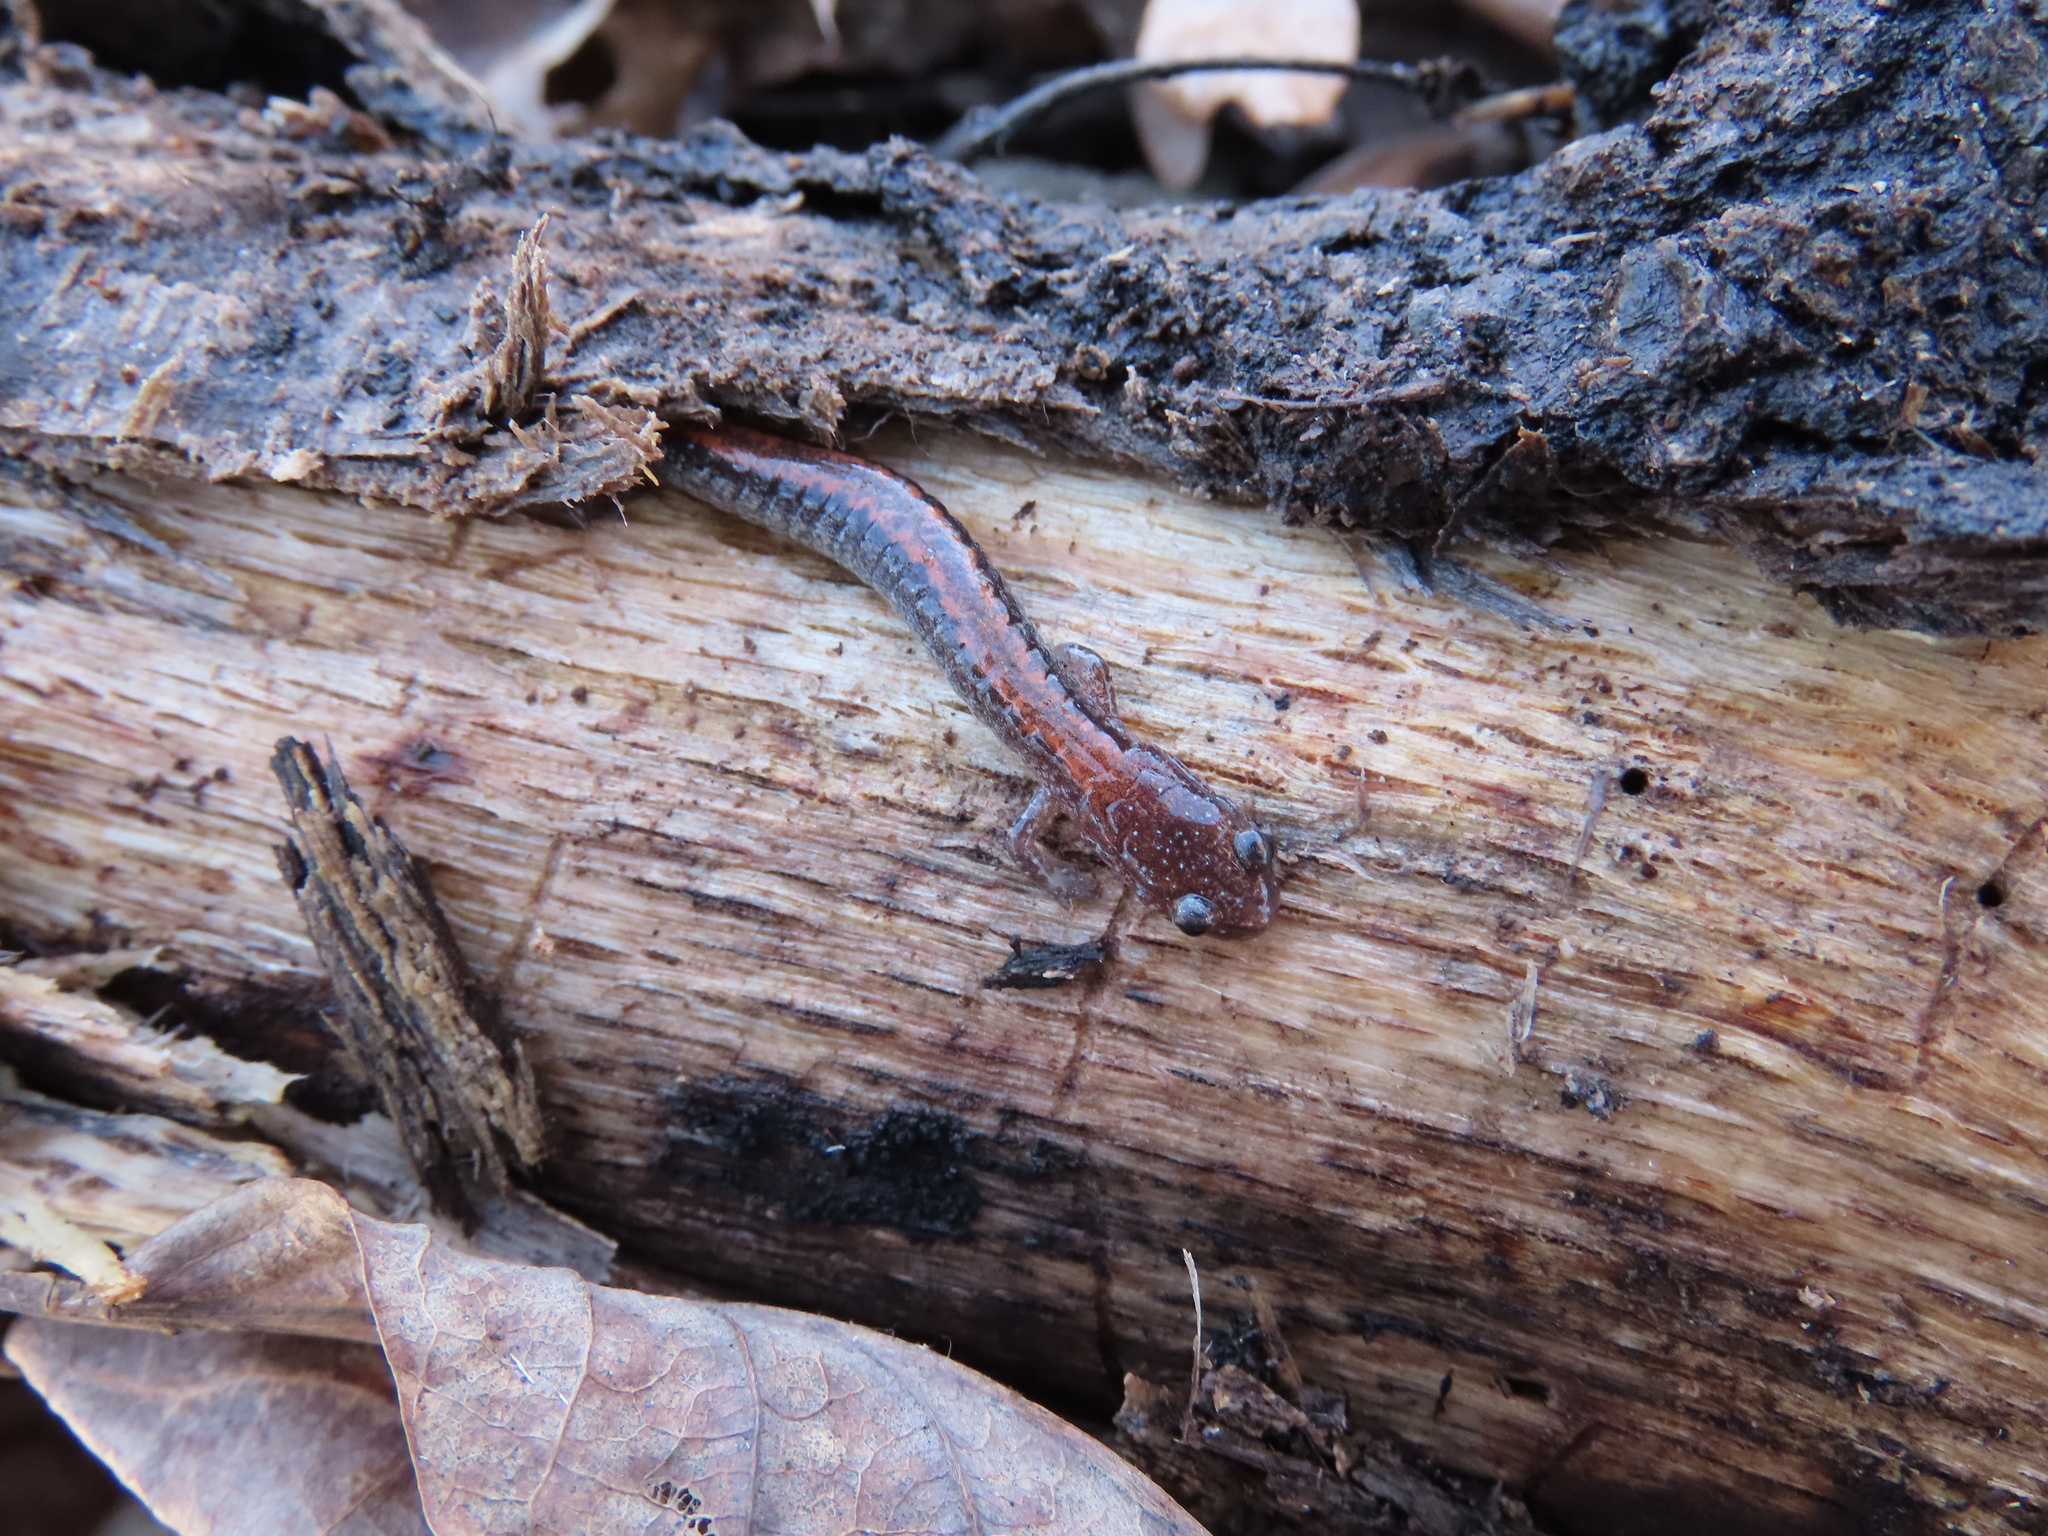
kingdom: Animalia
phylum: Chordata
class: Amphibia
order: Caudata
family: Plethodontidae
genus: Plethodon
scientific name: Plethodon cinereus
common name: Redback salamander
